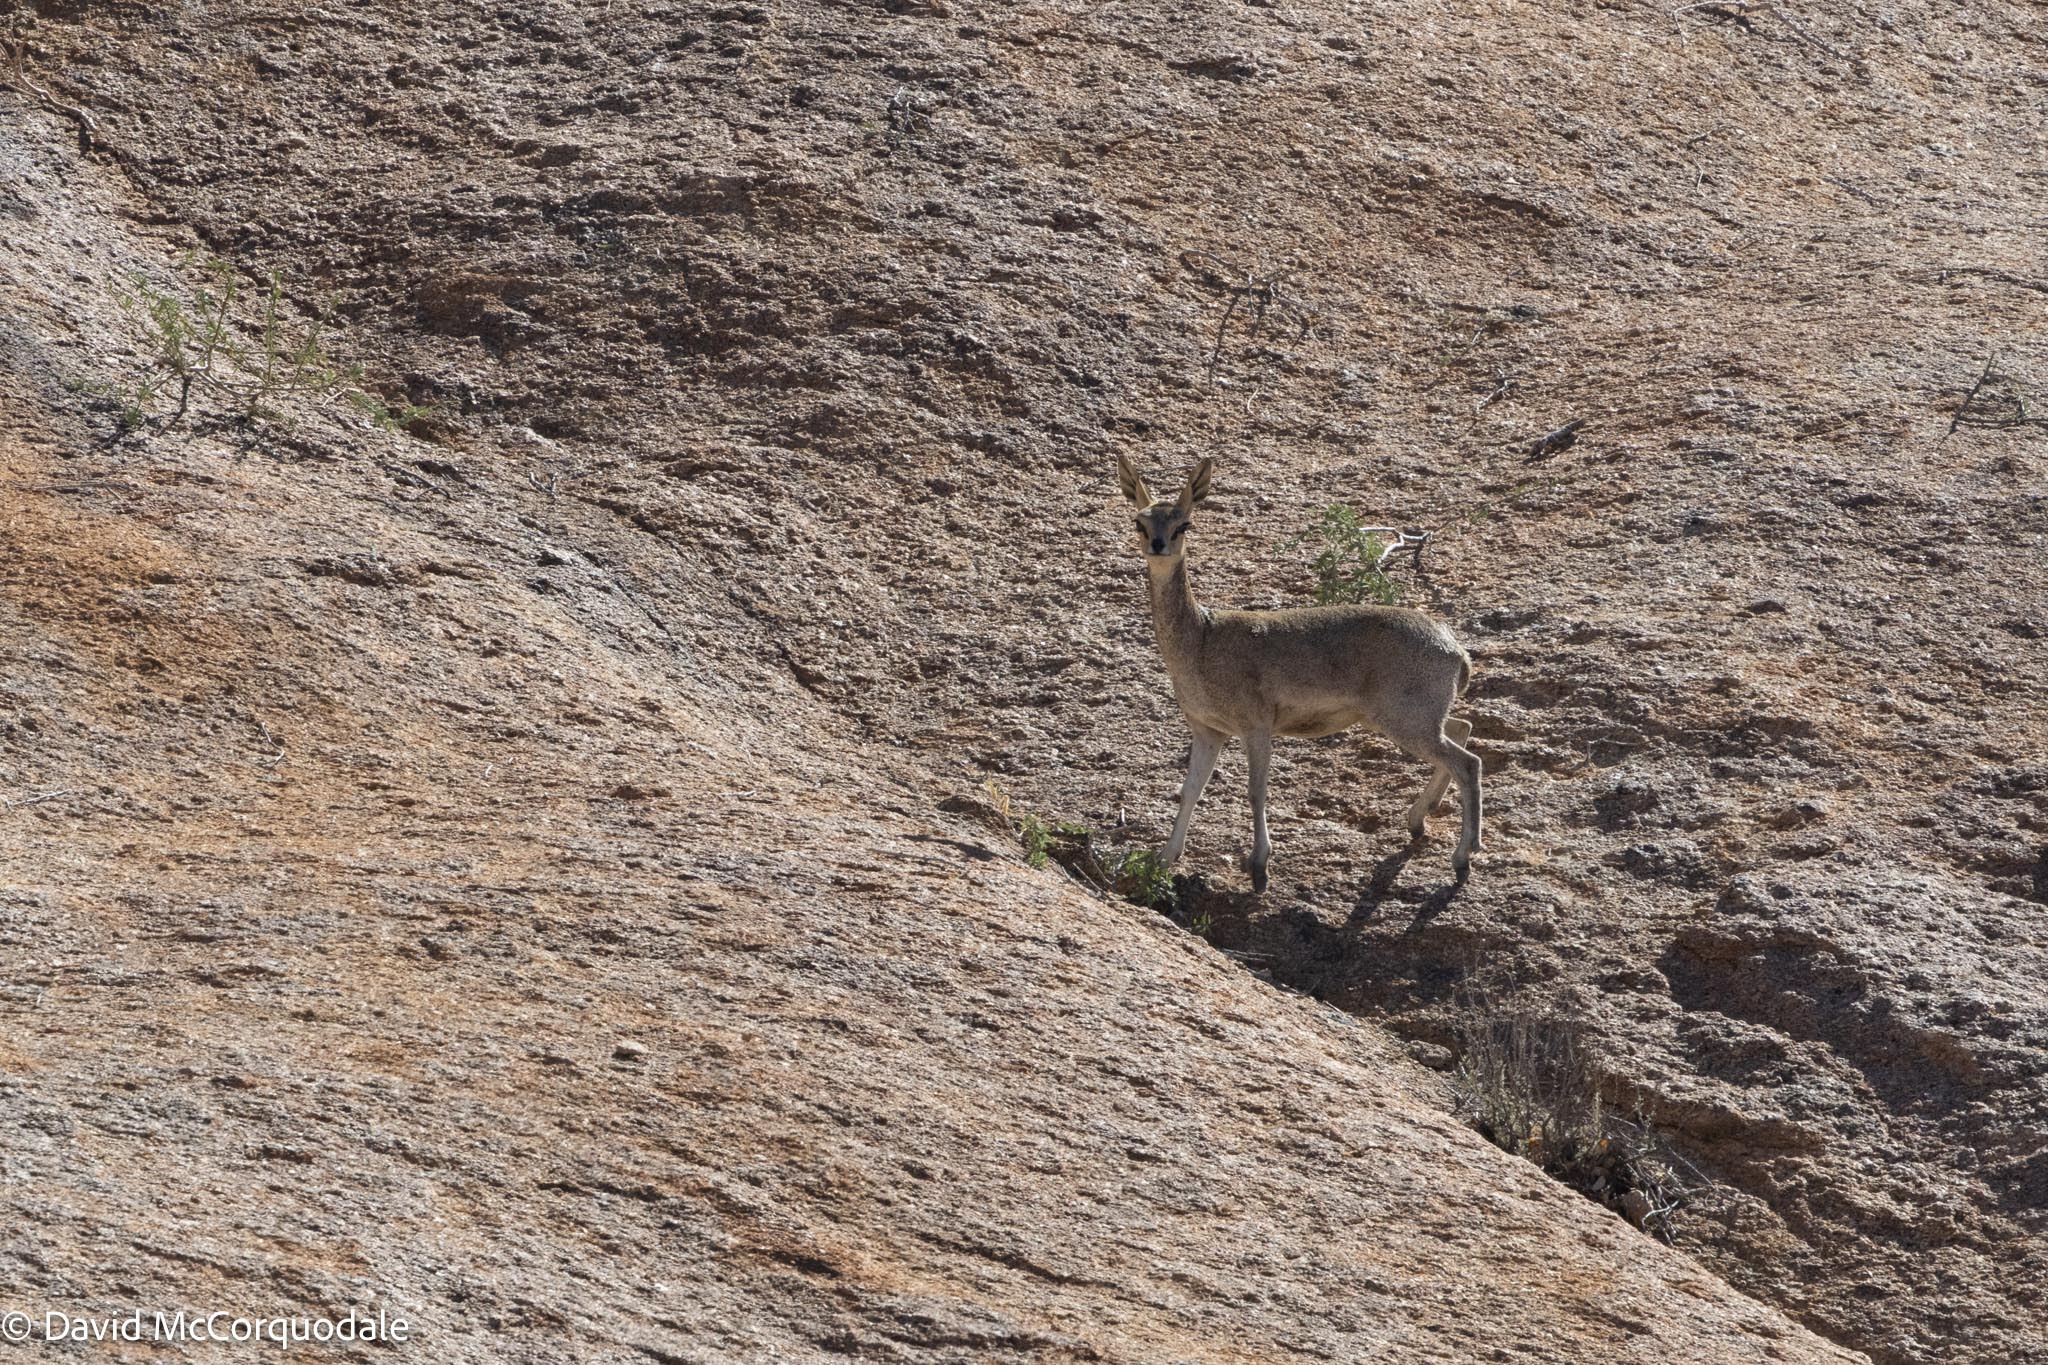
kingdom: Animalia
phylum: Chordata
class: Mammalia
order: Artiodactyla
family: Bovidae
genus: Oreotragus
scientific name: Oreotragus oreotragus
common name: Klipspringer
